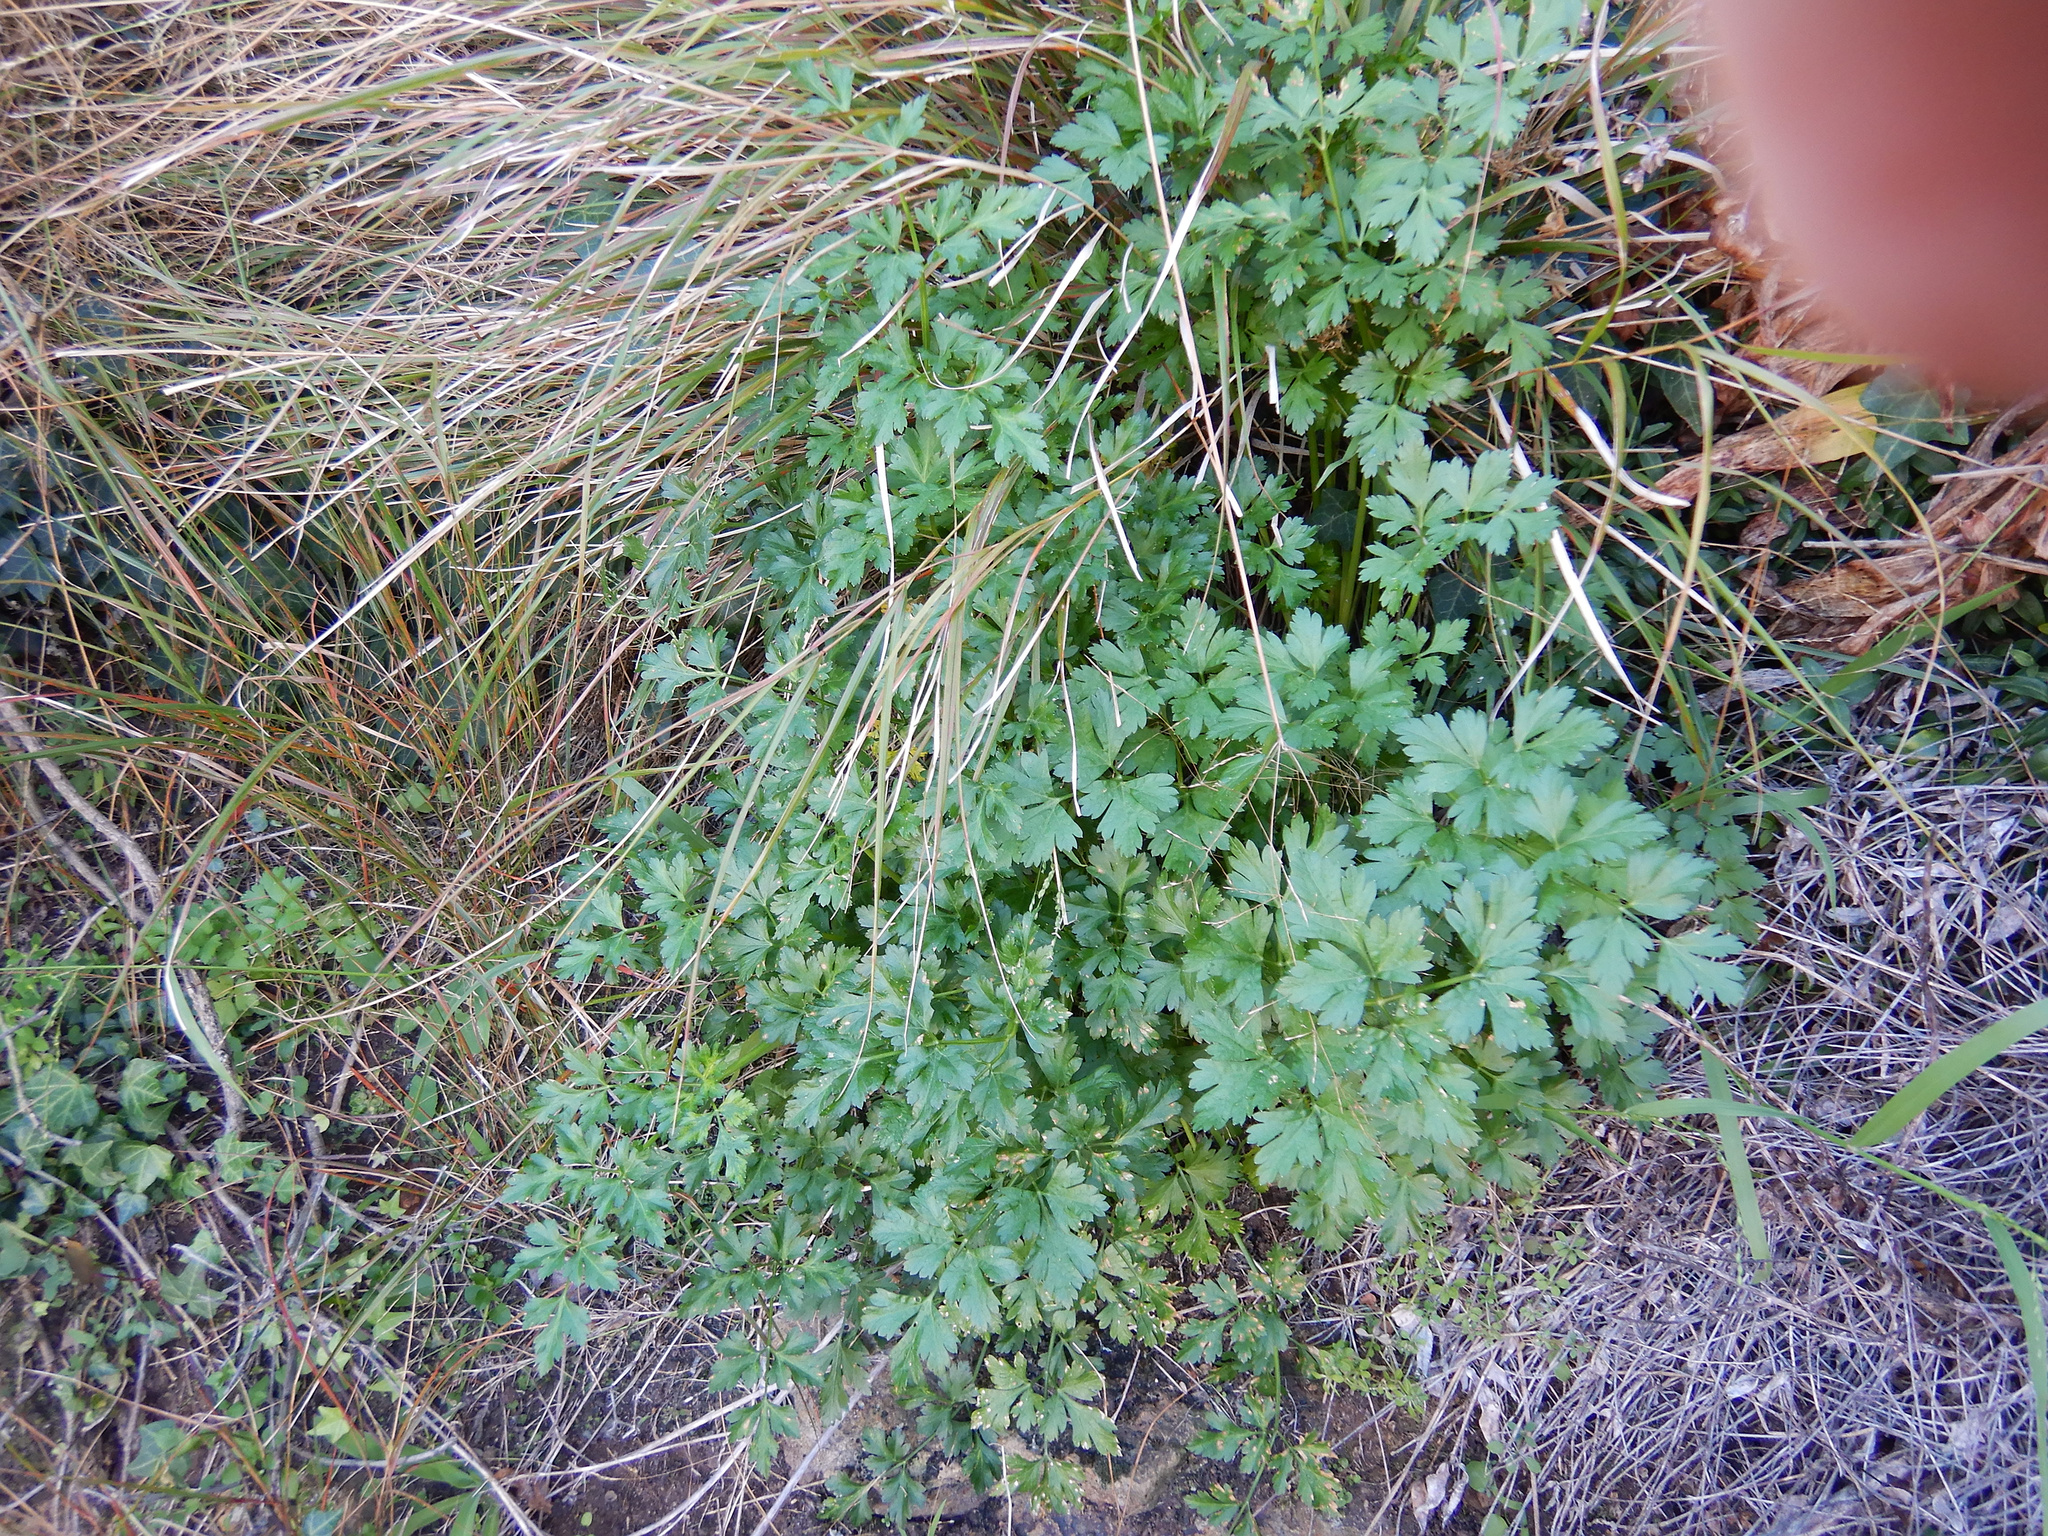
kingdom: Plantae
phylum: Tracheophyta
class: Magnoliopsida
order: Apiales
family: Apiaceae
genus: Petroselinum
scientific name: Petroselinum crispum
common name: Parsley
